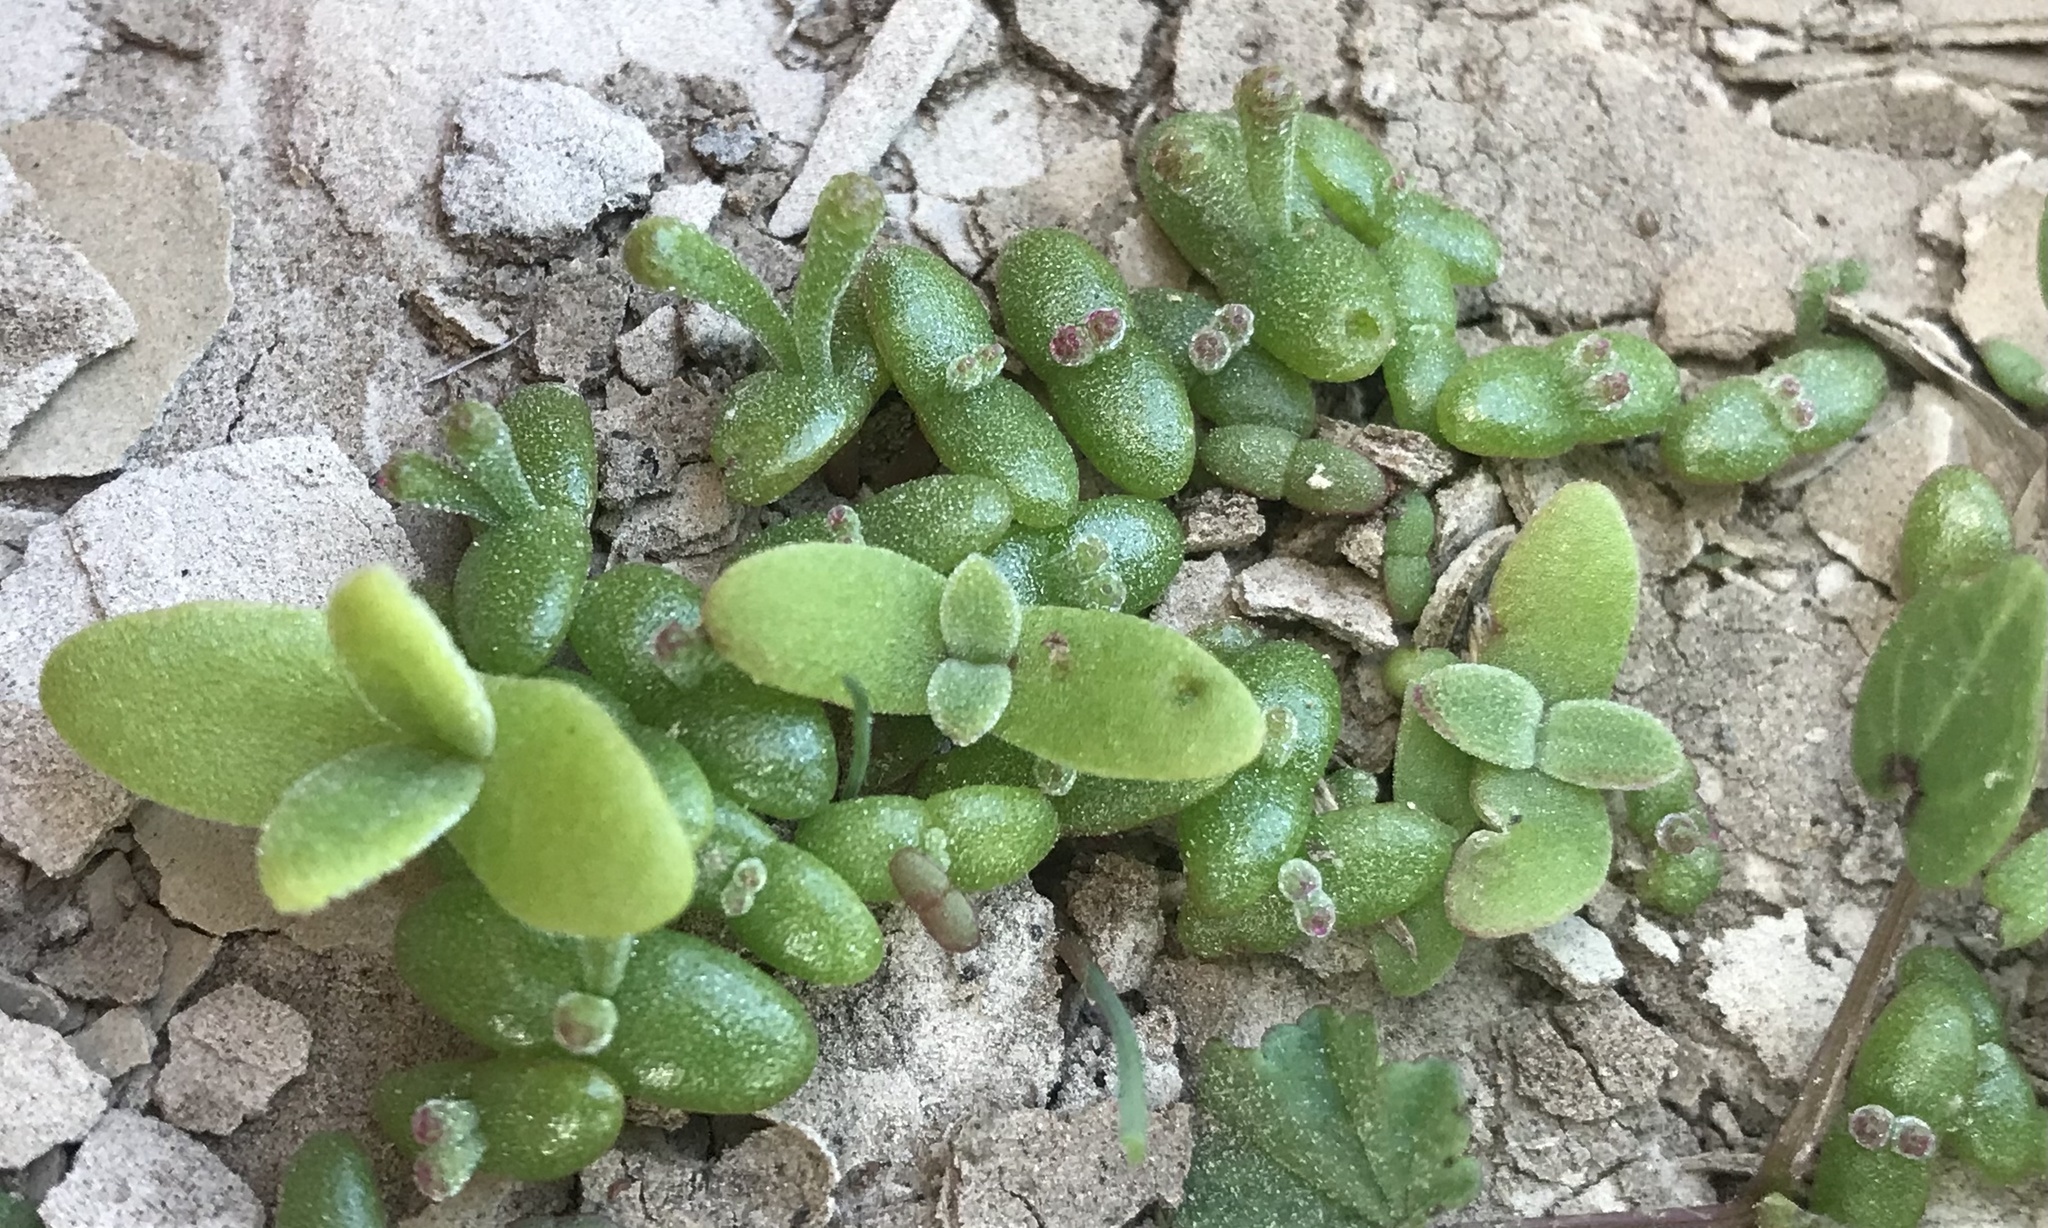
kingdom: Plantae
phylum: Tracheophyta
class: Magnoliopsida
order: Caryophyllales
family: Aizoaceae
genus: Mesembryanthemum
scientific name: Mesembryanthemum crystallinum
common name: Common iceplant
